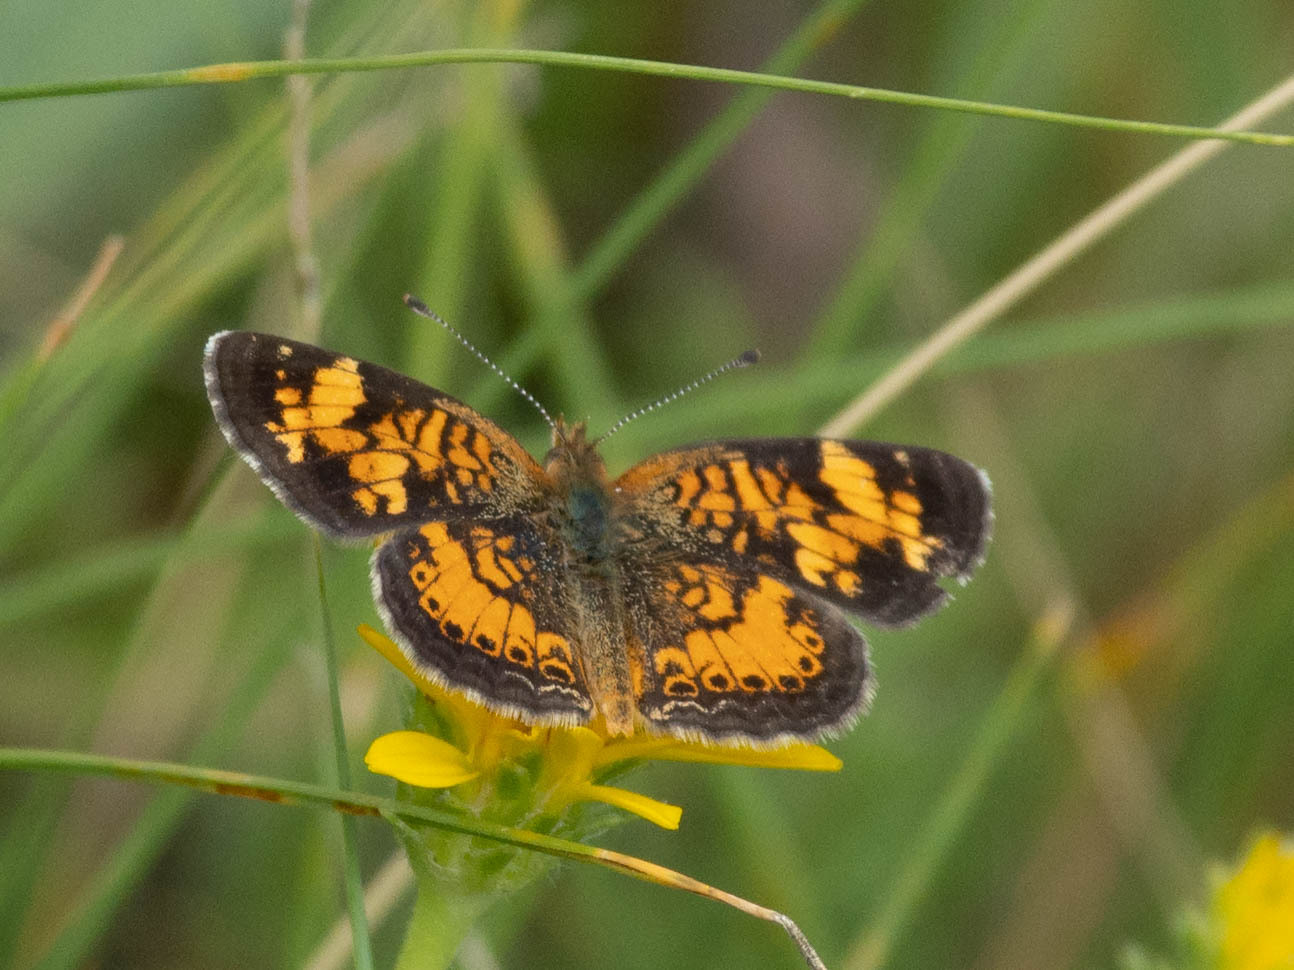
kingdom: Animalia
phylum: Arthropoda
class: Insecta
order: Lepidoptera
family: Nymphalidae
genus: Phyciodes
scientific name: Phyciodes tharos
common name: Pearl crescent
